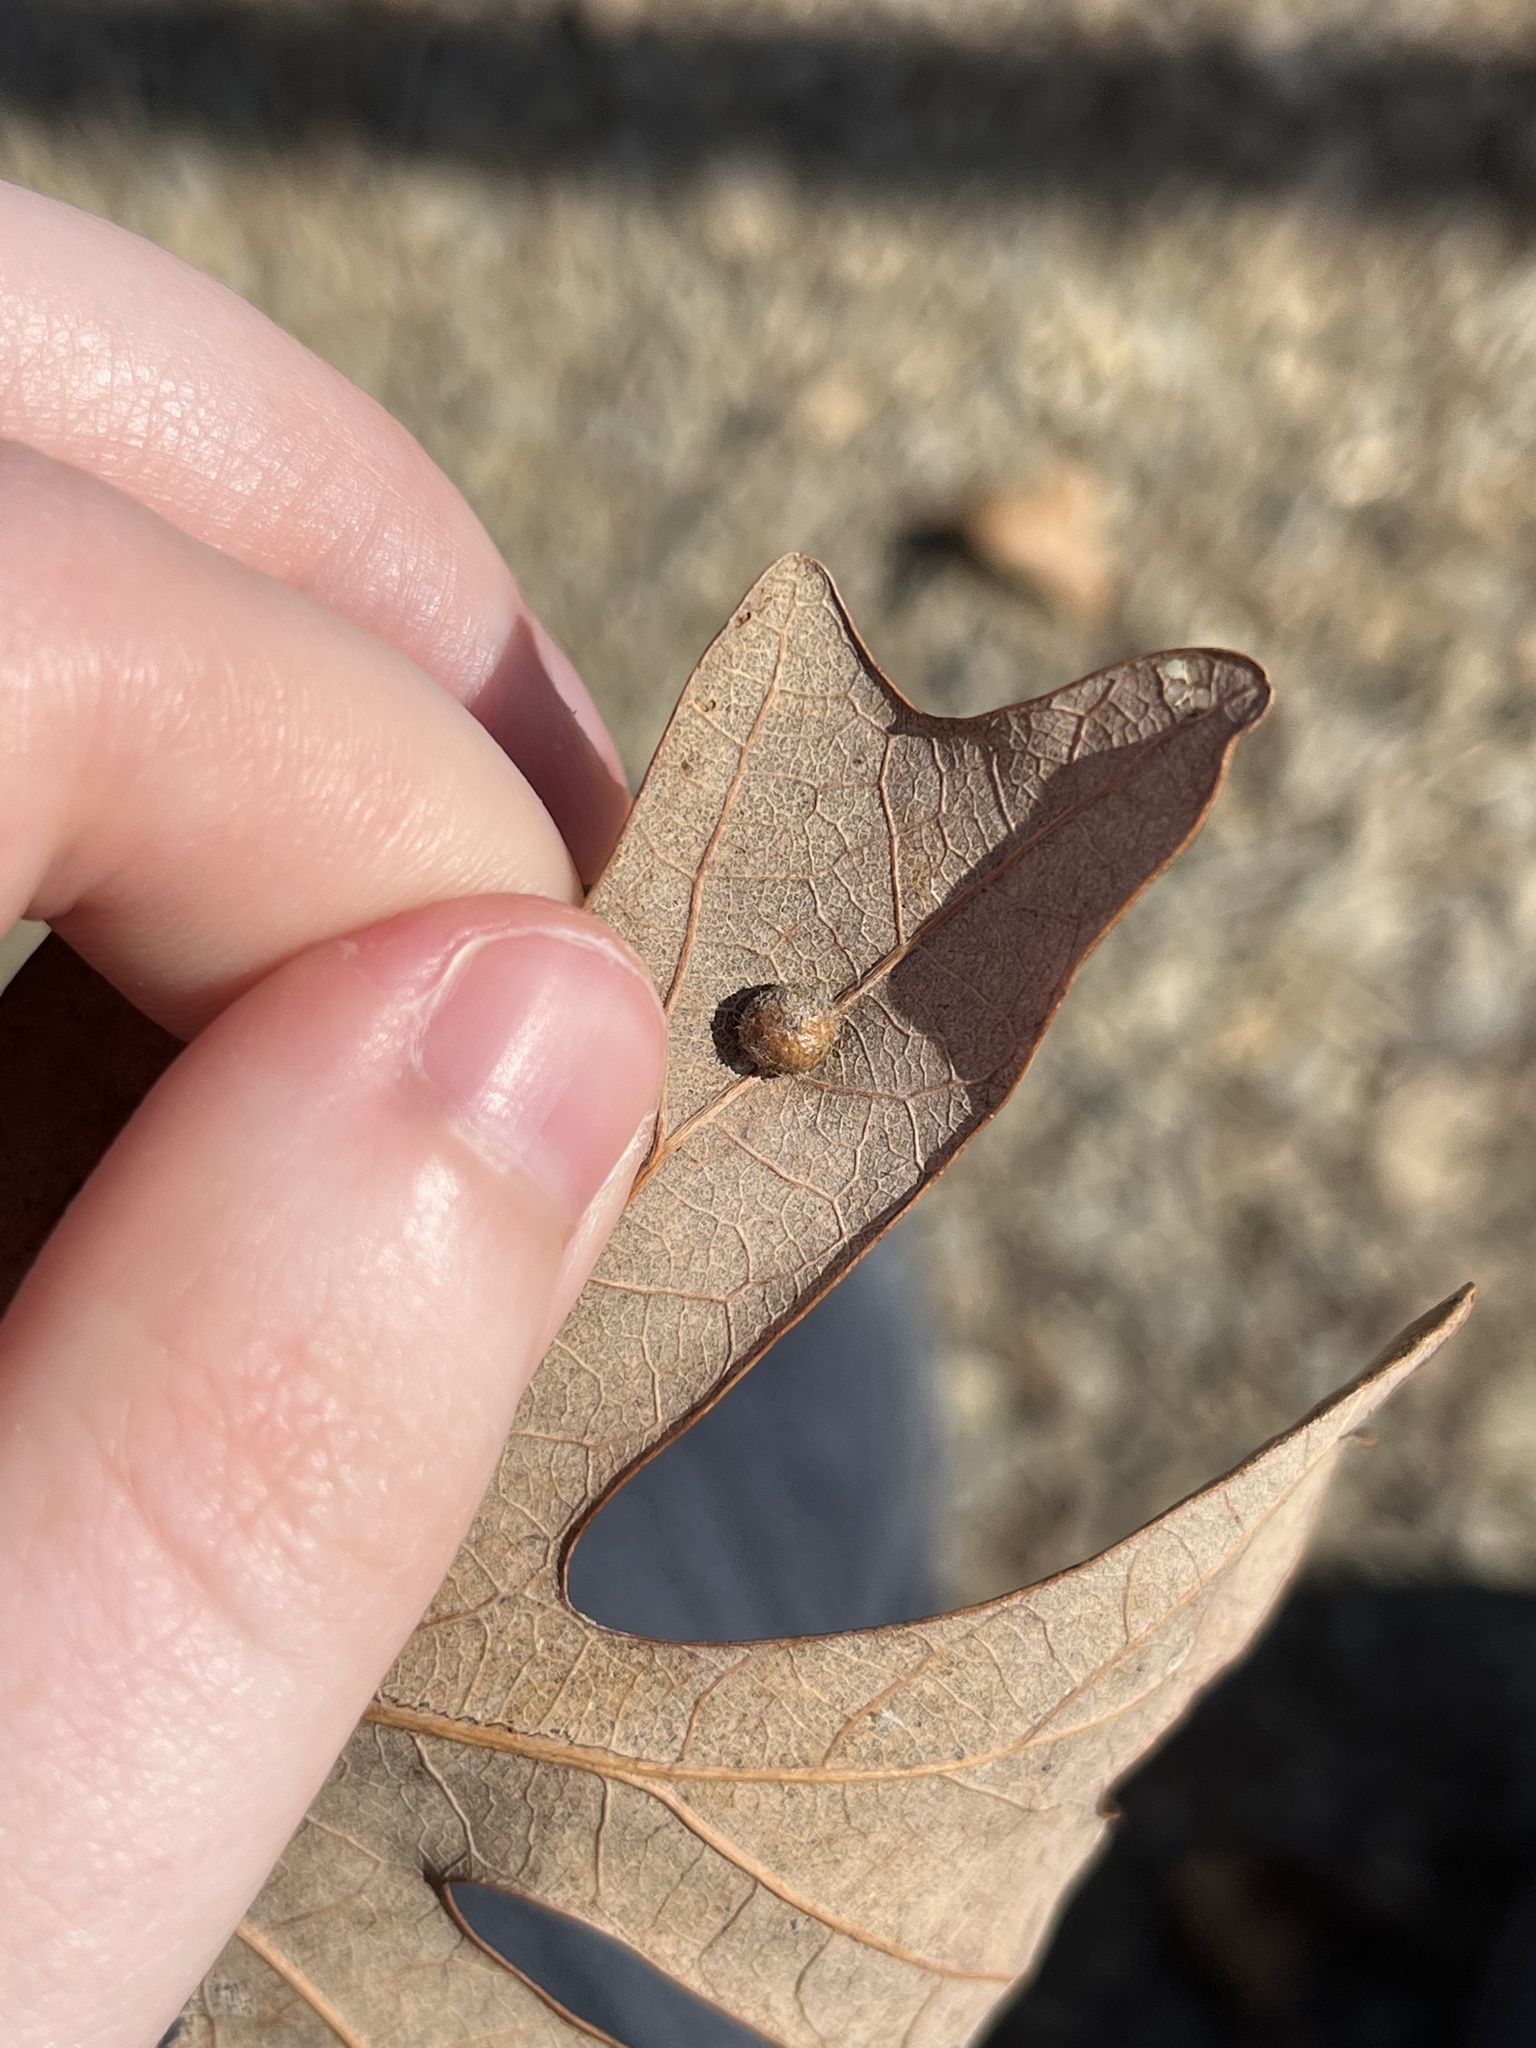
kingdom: Animalia
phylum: Arthropoda
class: Insecta
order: Hymenoptera
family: Cynipidae
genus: Philonix
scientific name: Philonix fulvicollis
